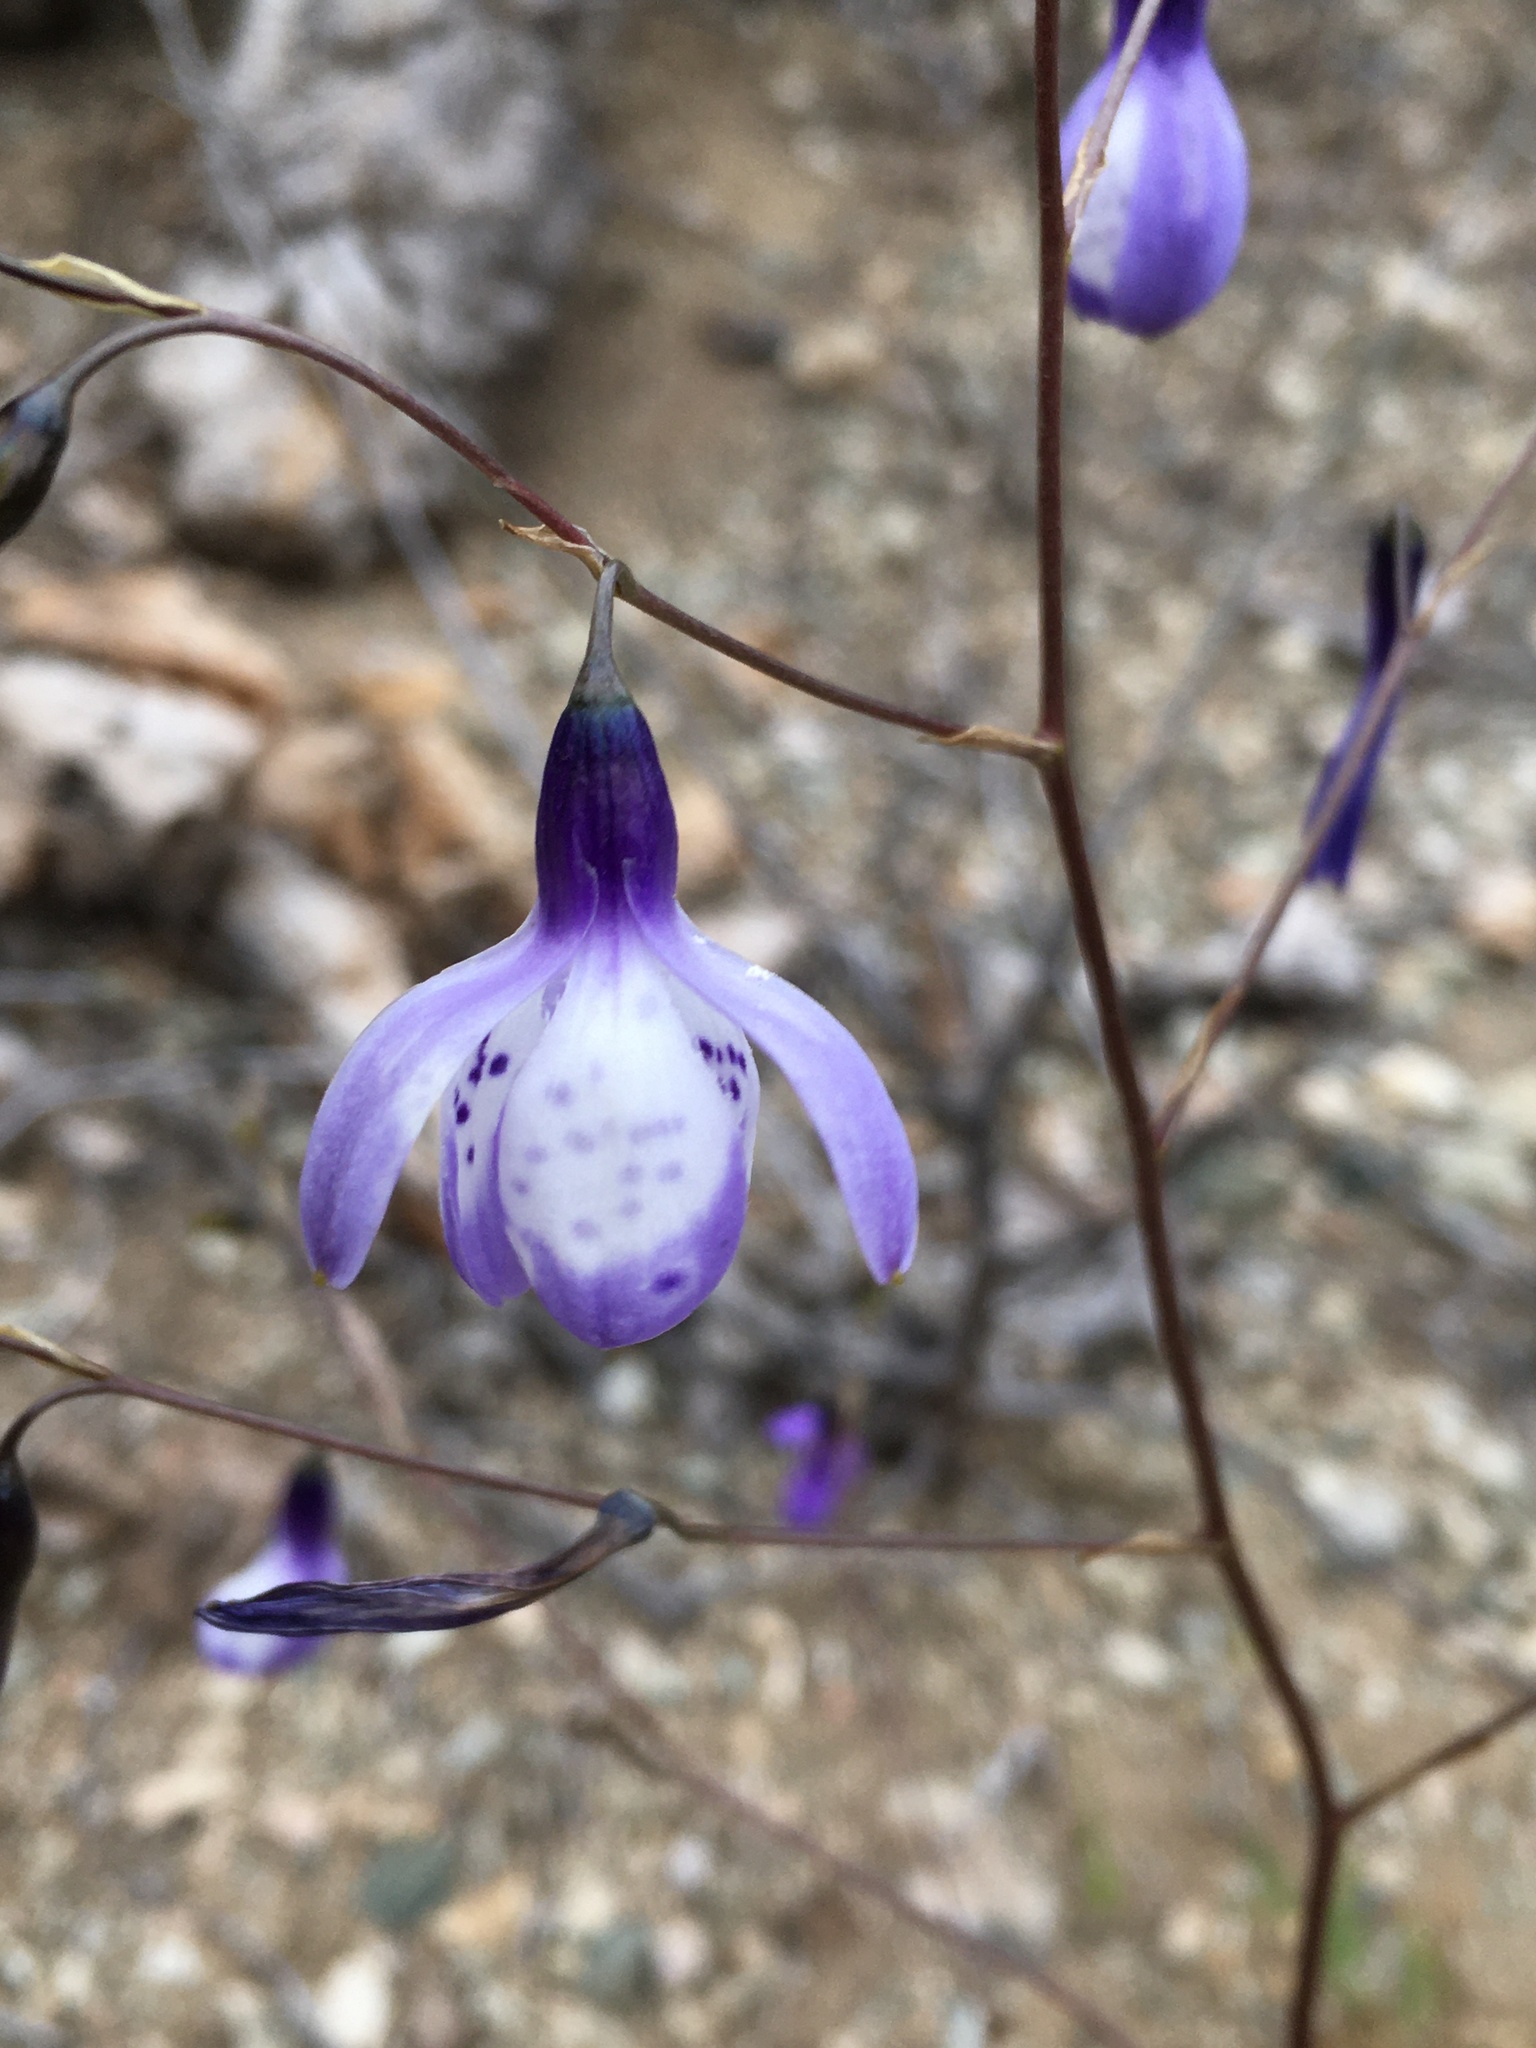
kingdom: Plantae
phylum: Tracheophyta
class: Liliopsida
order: Asparagales
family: Tecophilaeaceae
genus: Conanthera
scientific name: Conanthera campanulata
